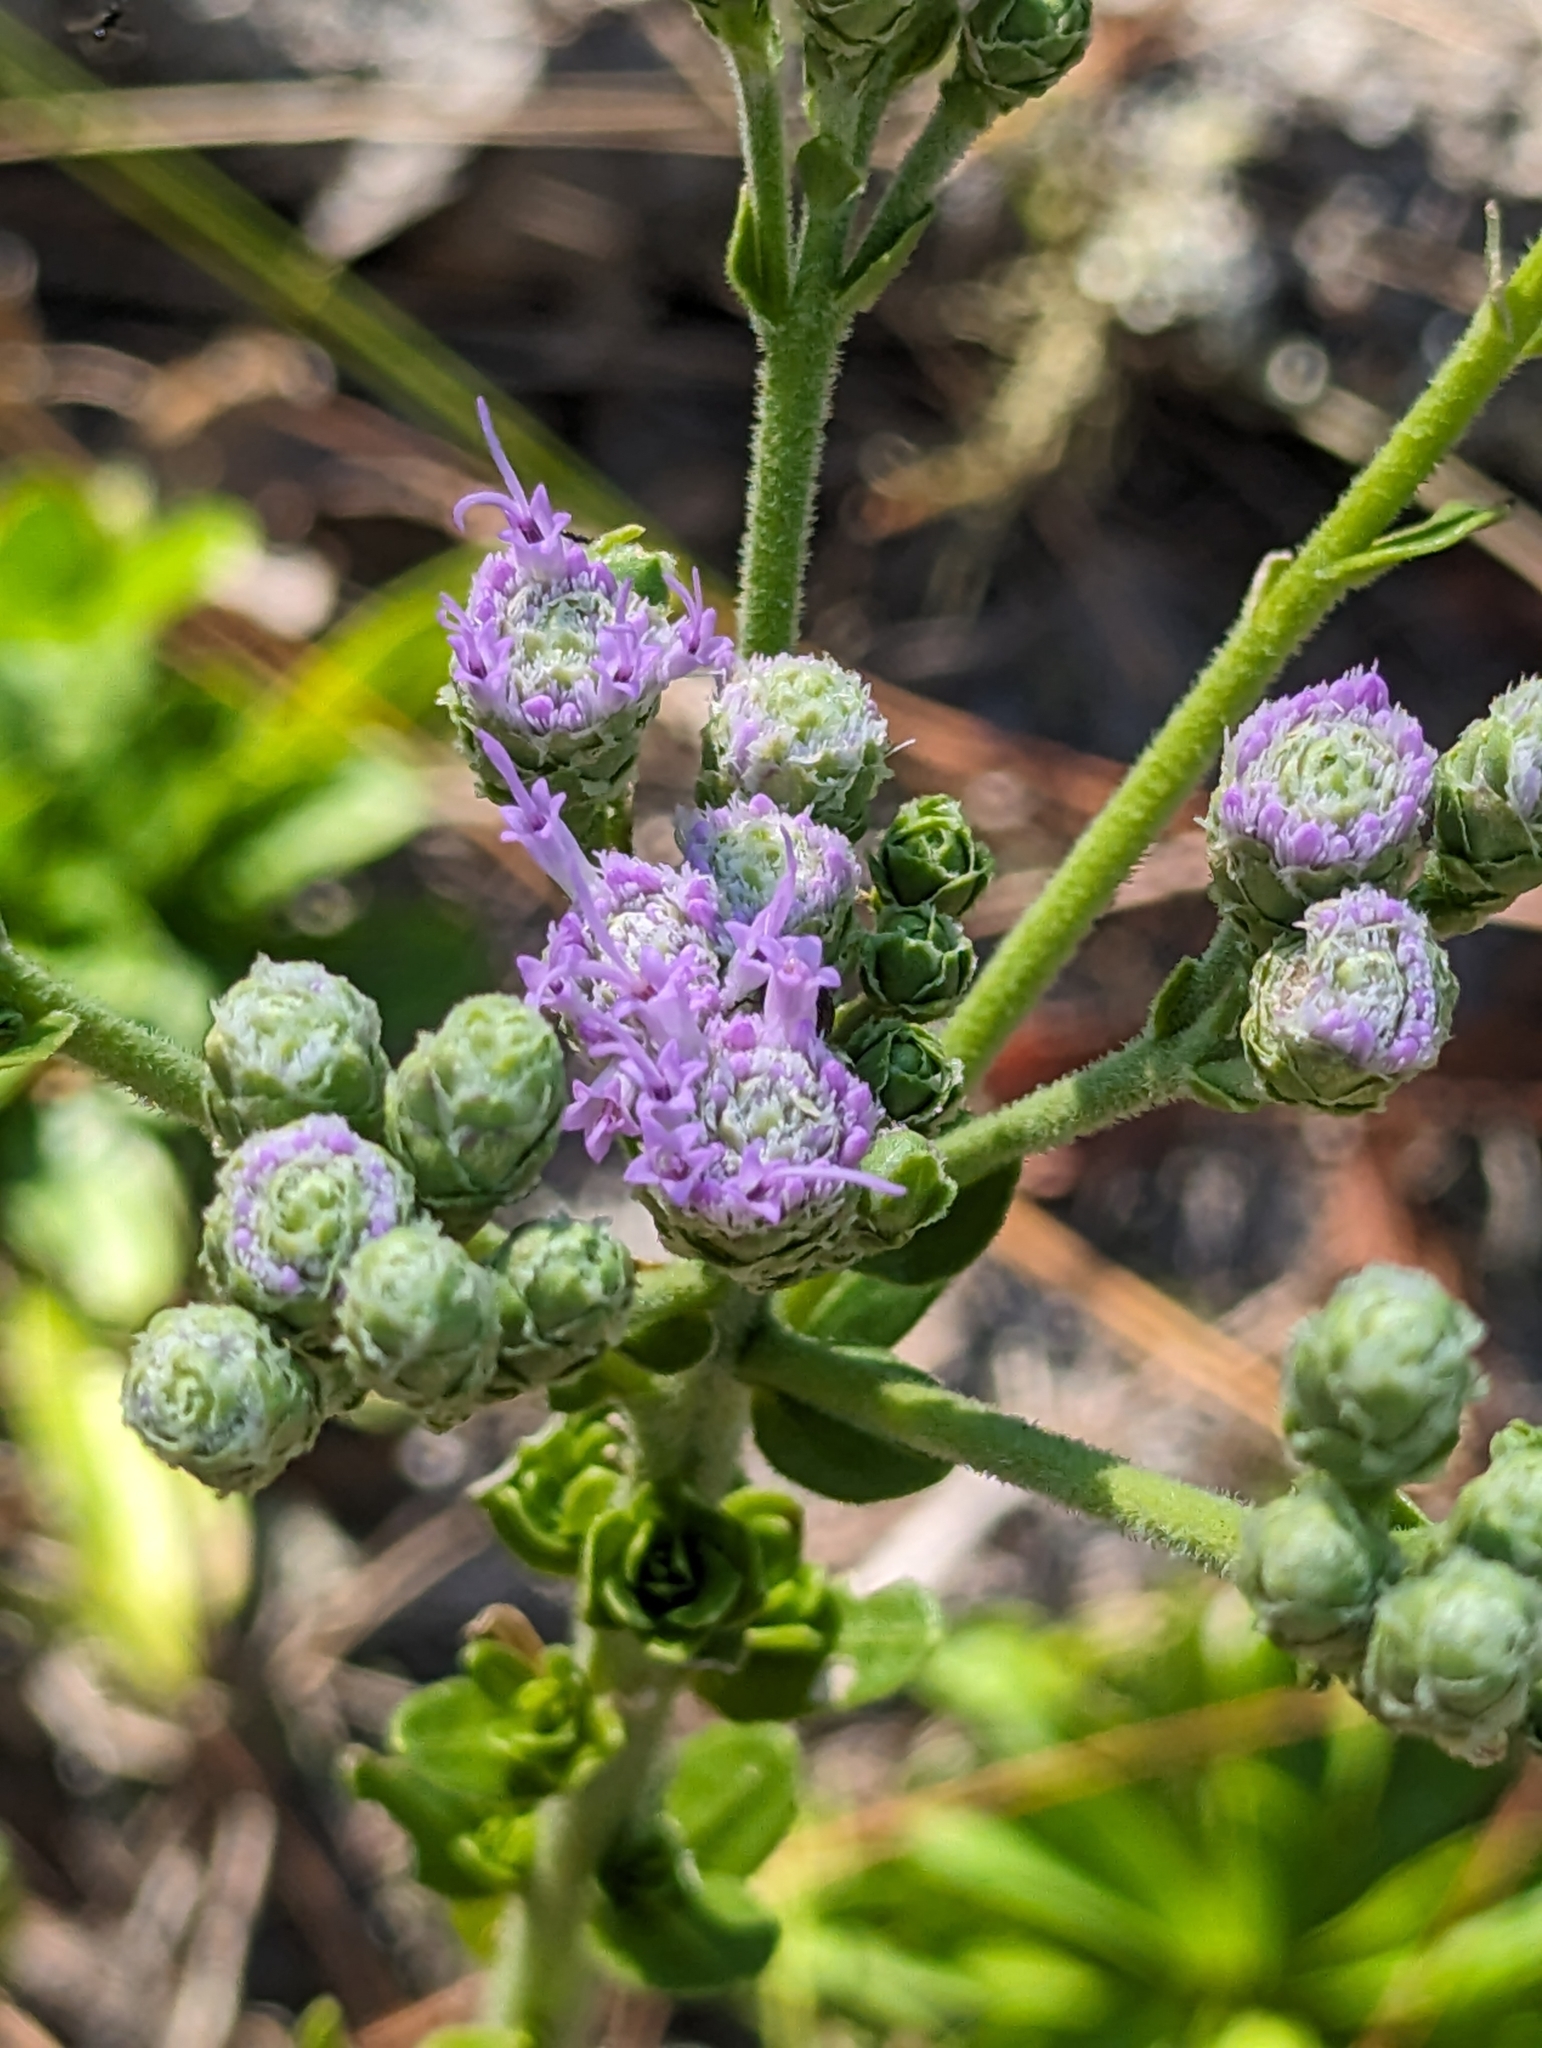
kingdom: Plantae
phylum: Tracheophyta
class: Magnoliopsida
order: Asterales
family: Asteraceae
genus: Carphephorus
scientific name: Carphephorus corymbosus
